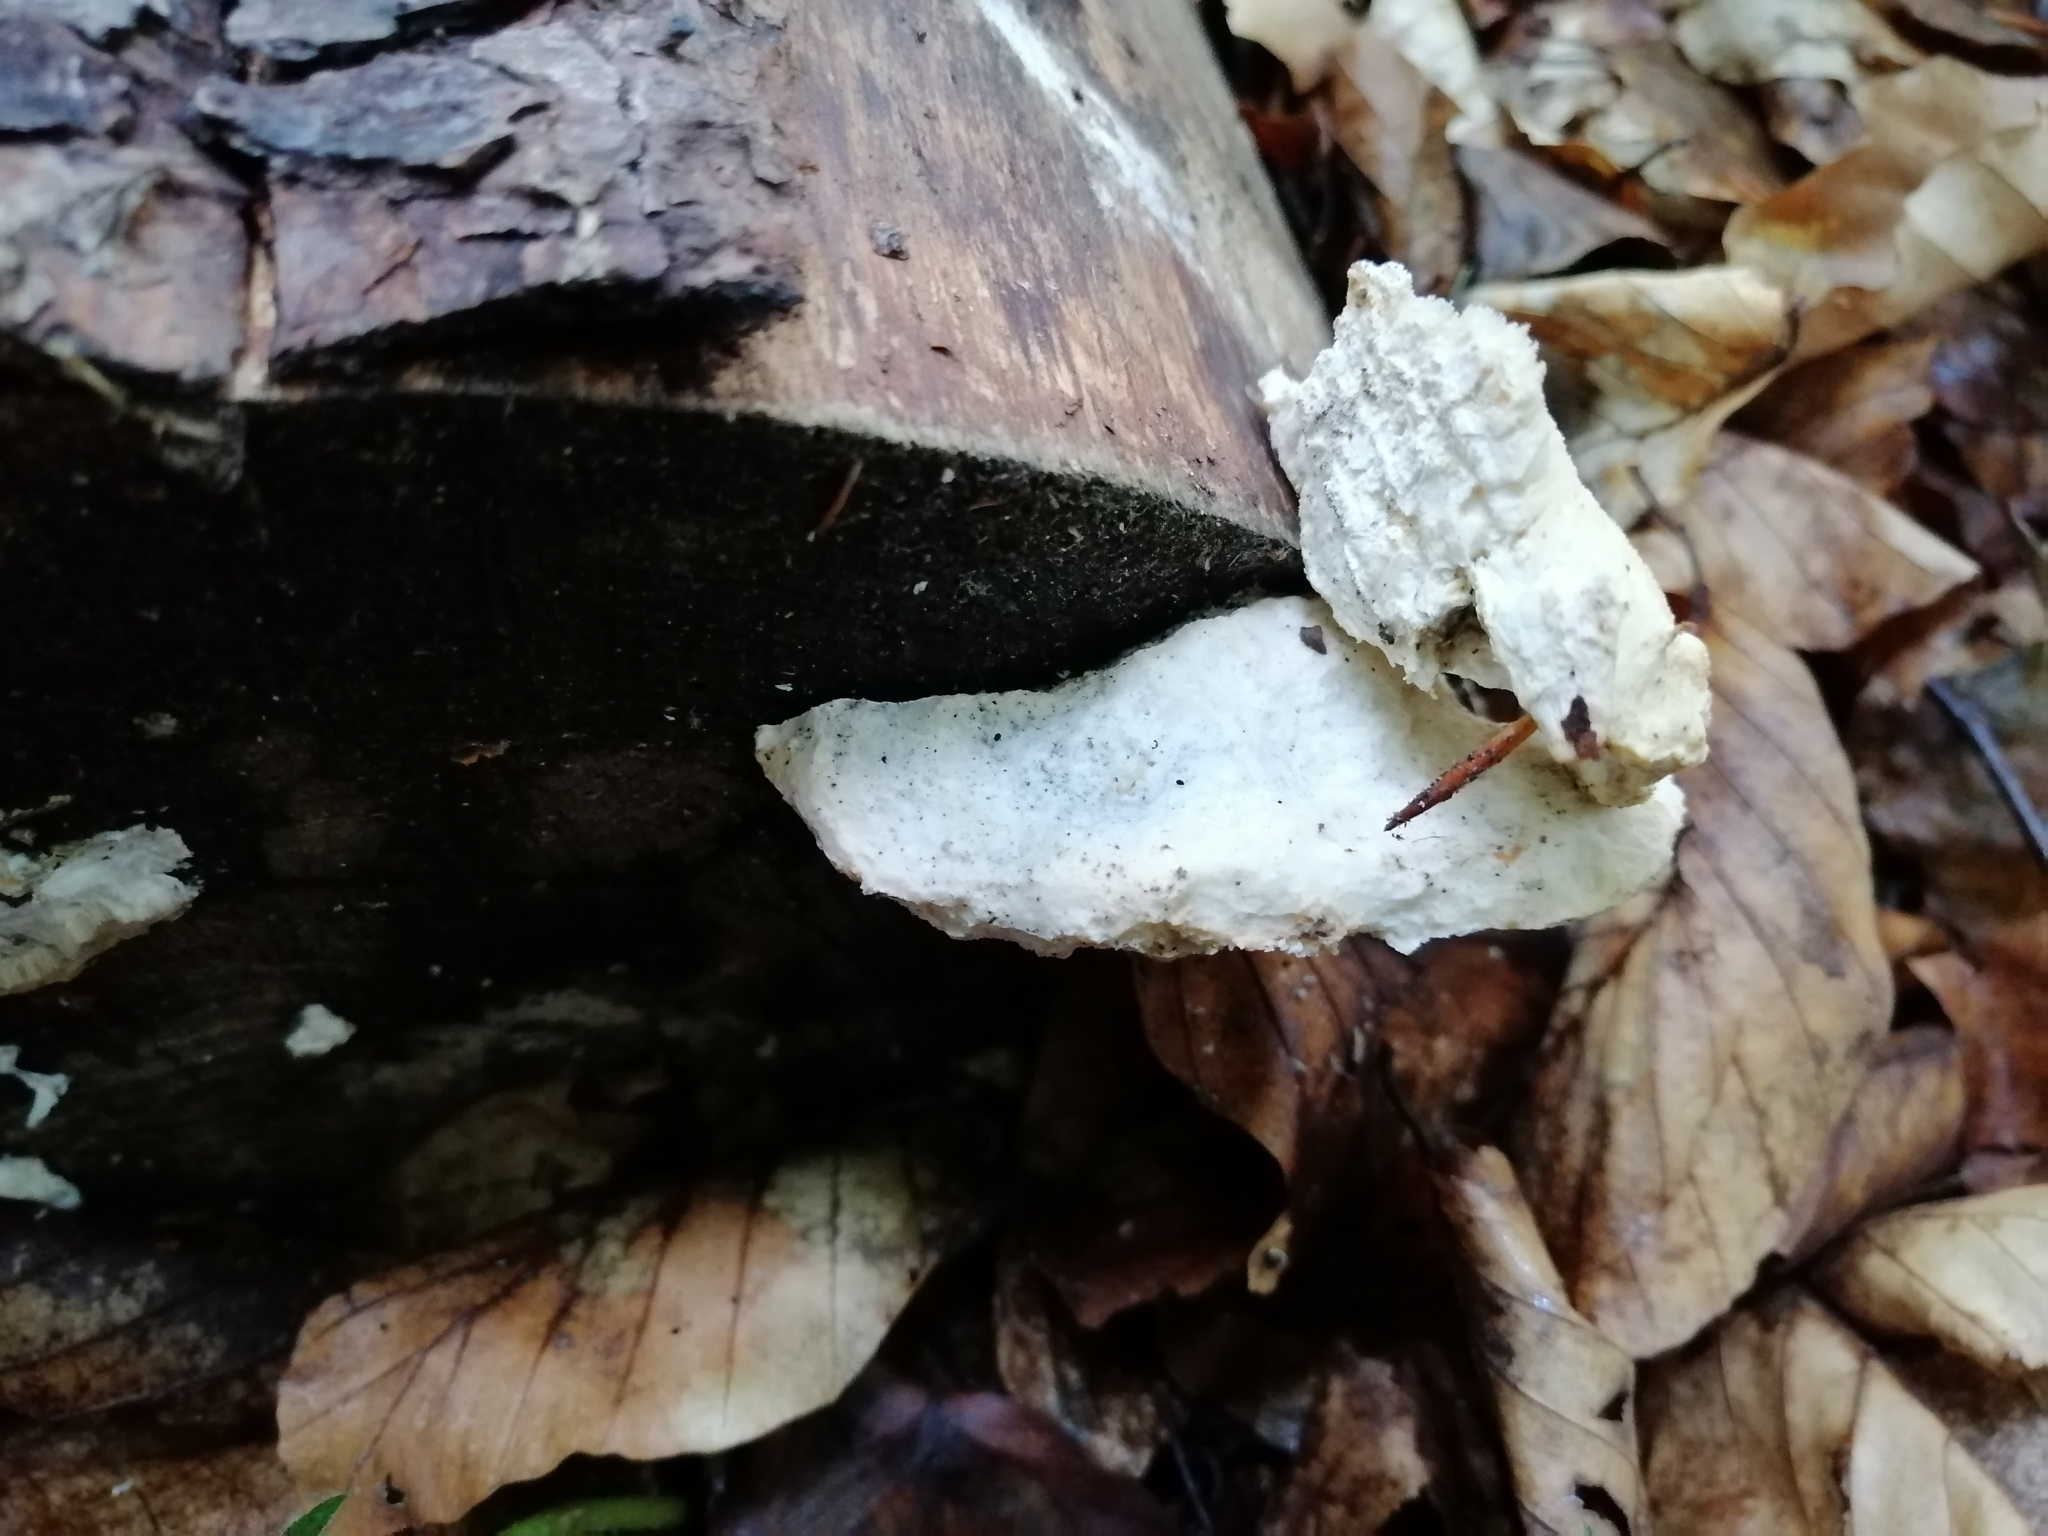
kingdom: Fungi
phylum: Basidiomycota
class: Agaricomycetes
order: Polyporales
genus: Amaropostia
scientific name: Amaropostia stiptica
